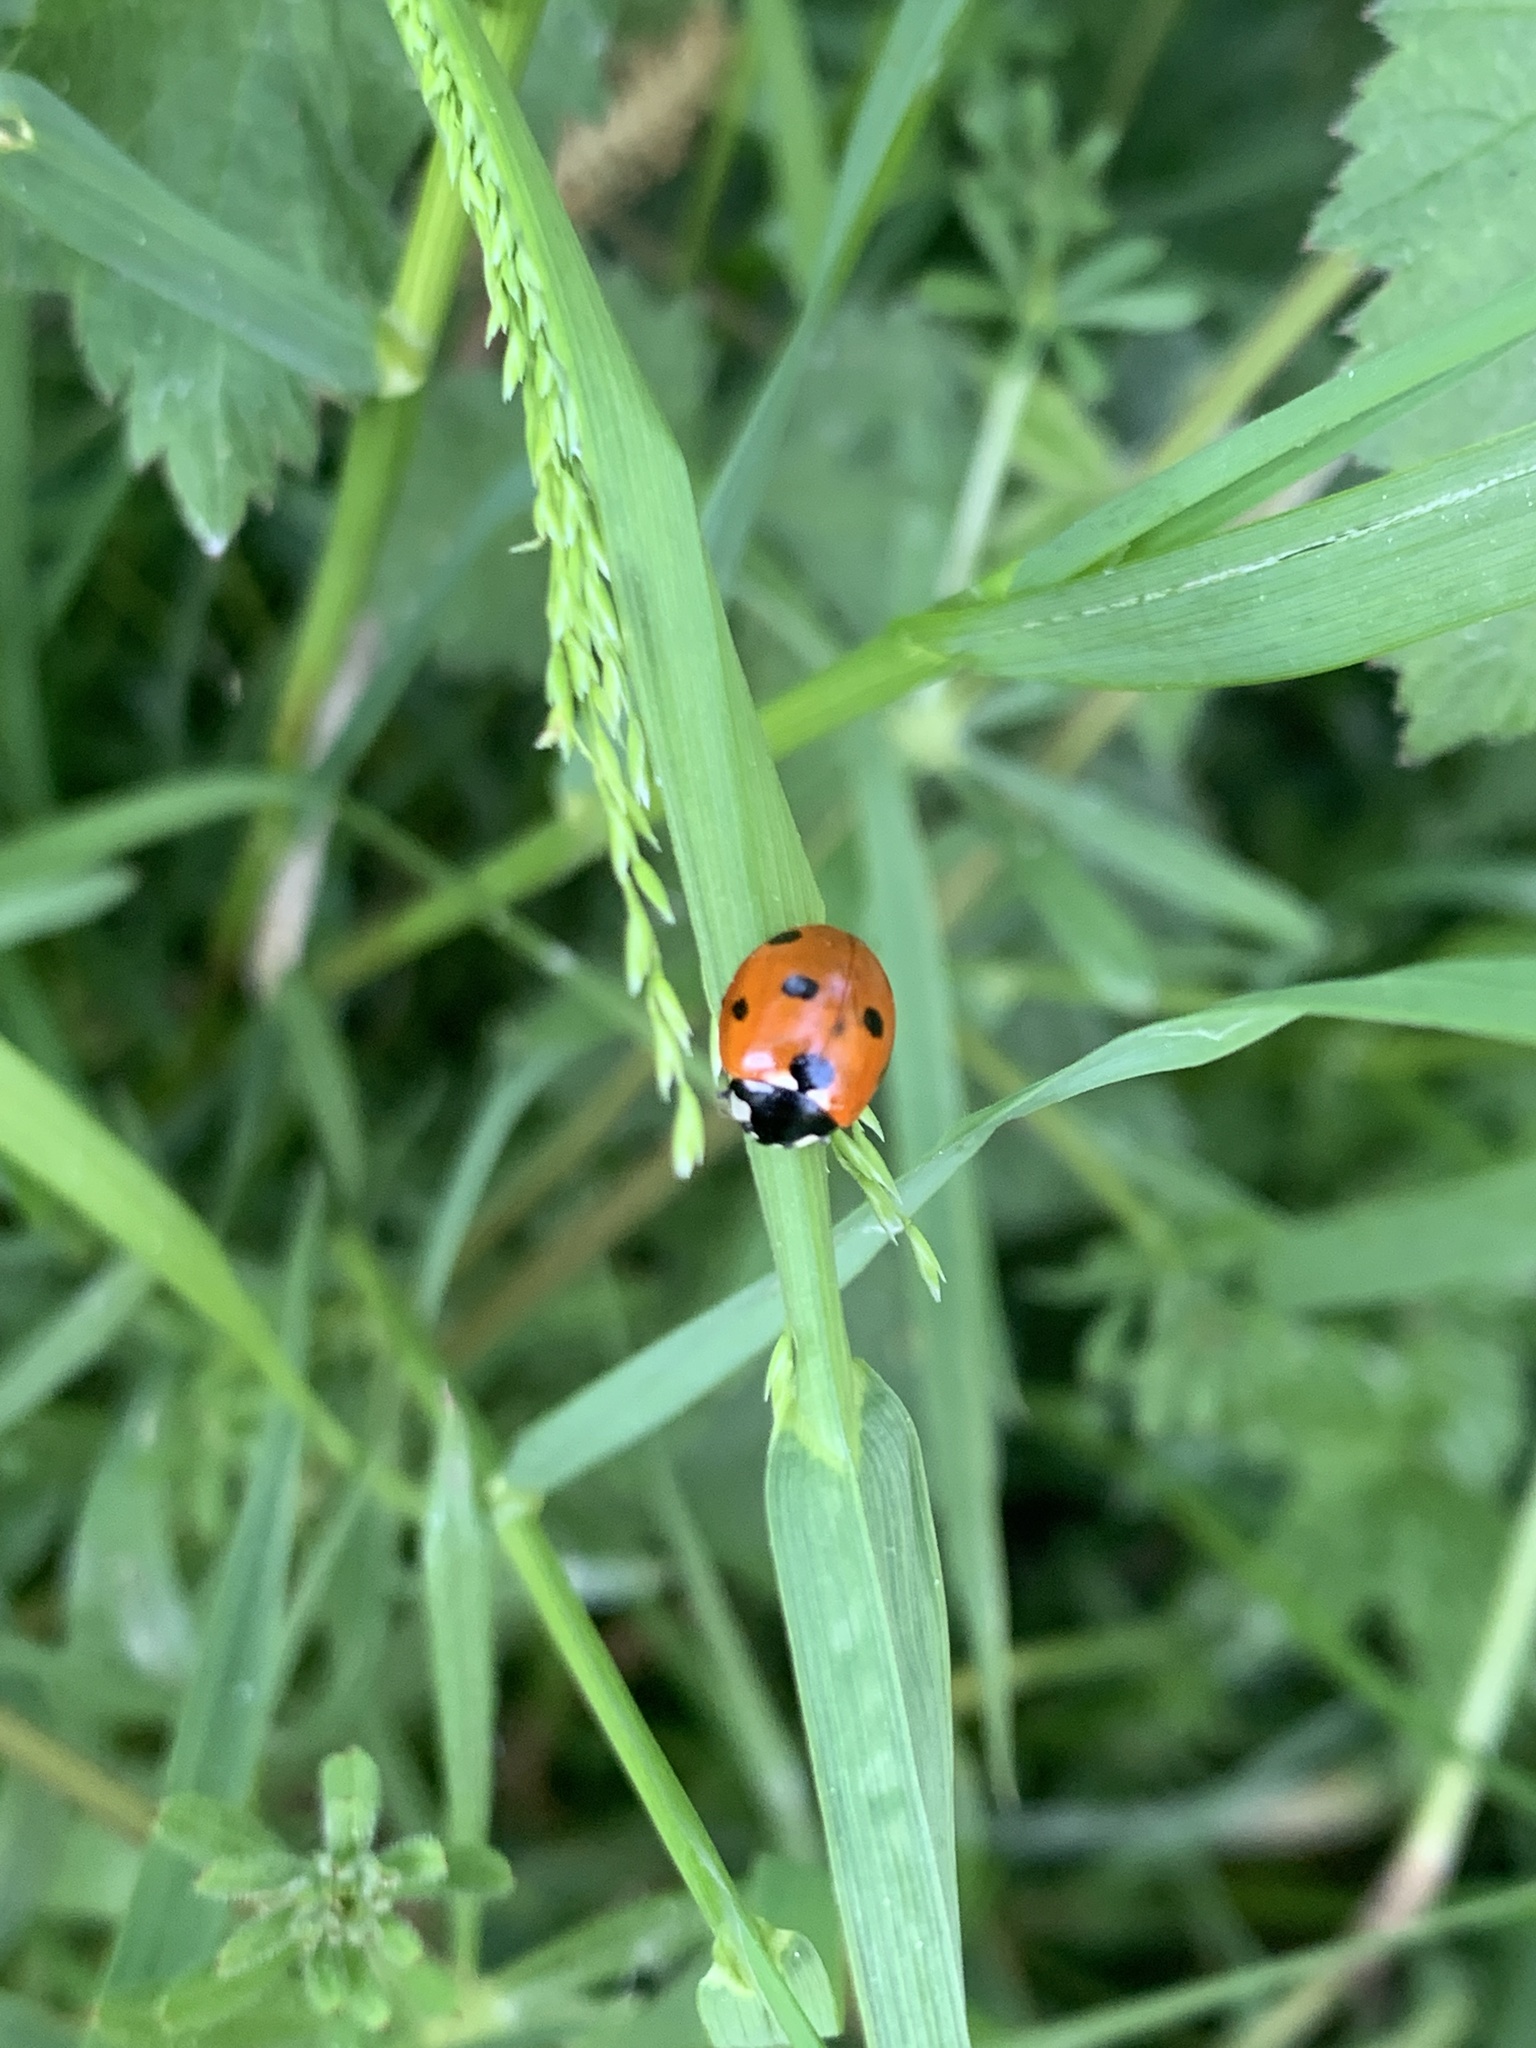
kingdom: Animalia
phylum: Arthropoda
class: Insecta
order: Coleoptera
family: Coccinellidae
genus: Coccinella
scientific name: Coccinella septempunctata
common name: Sevenspotted lady beetle
